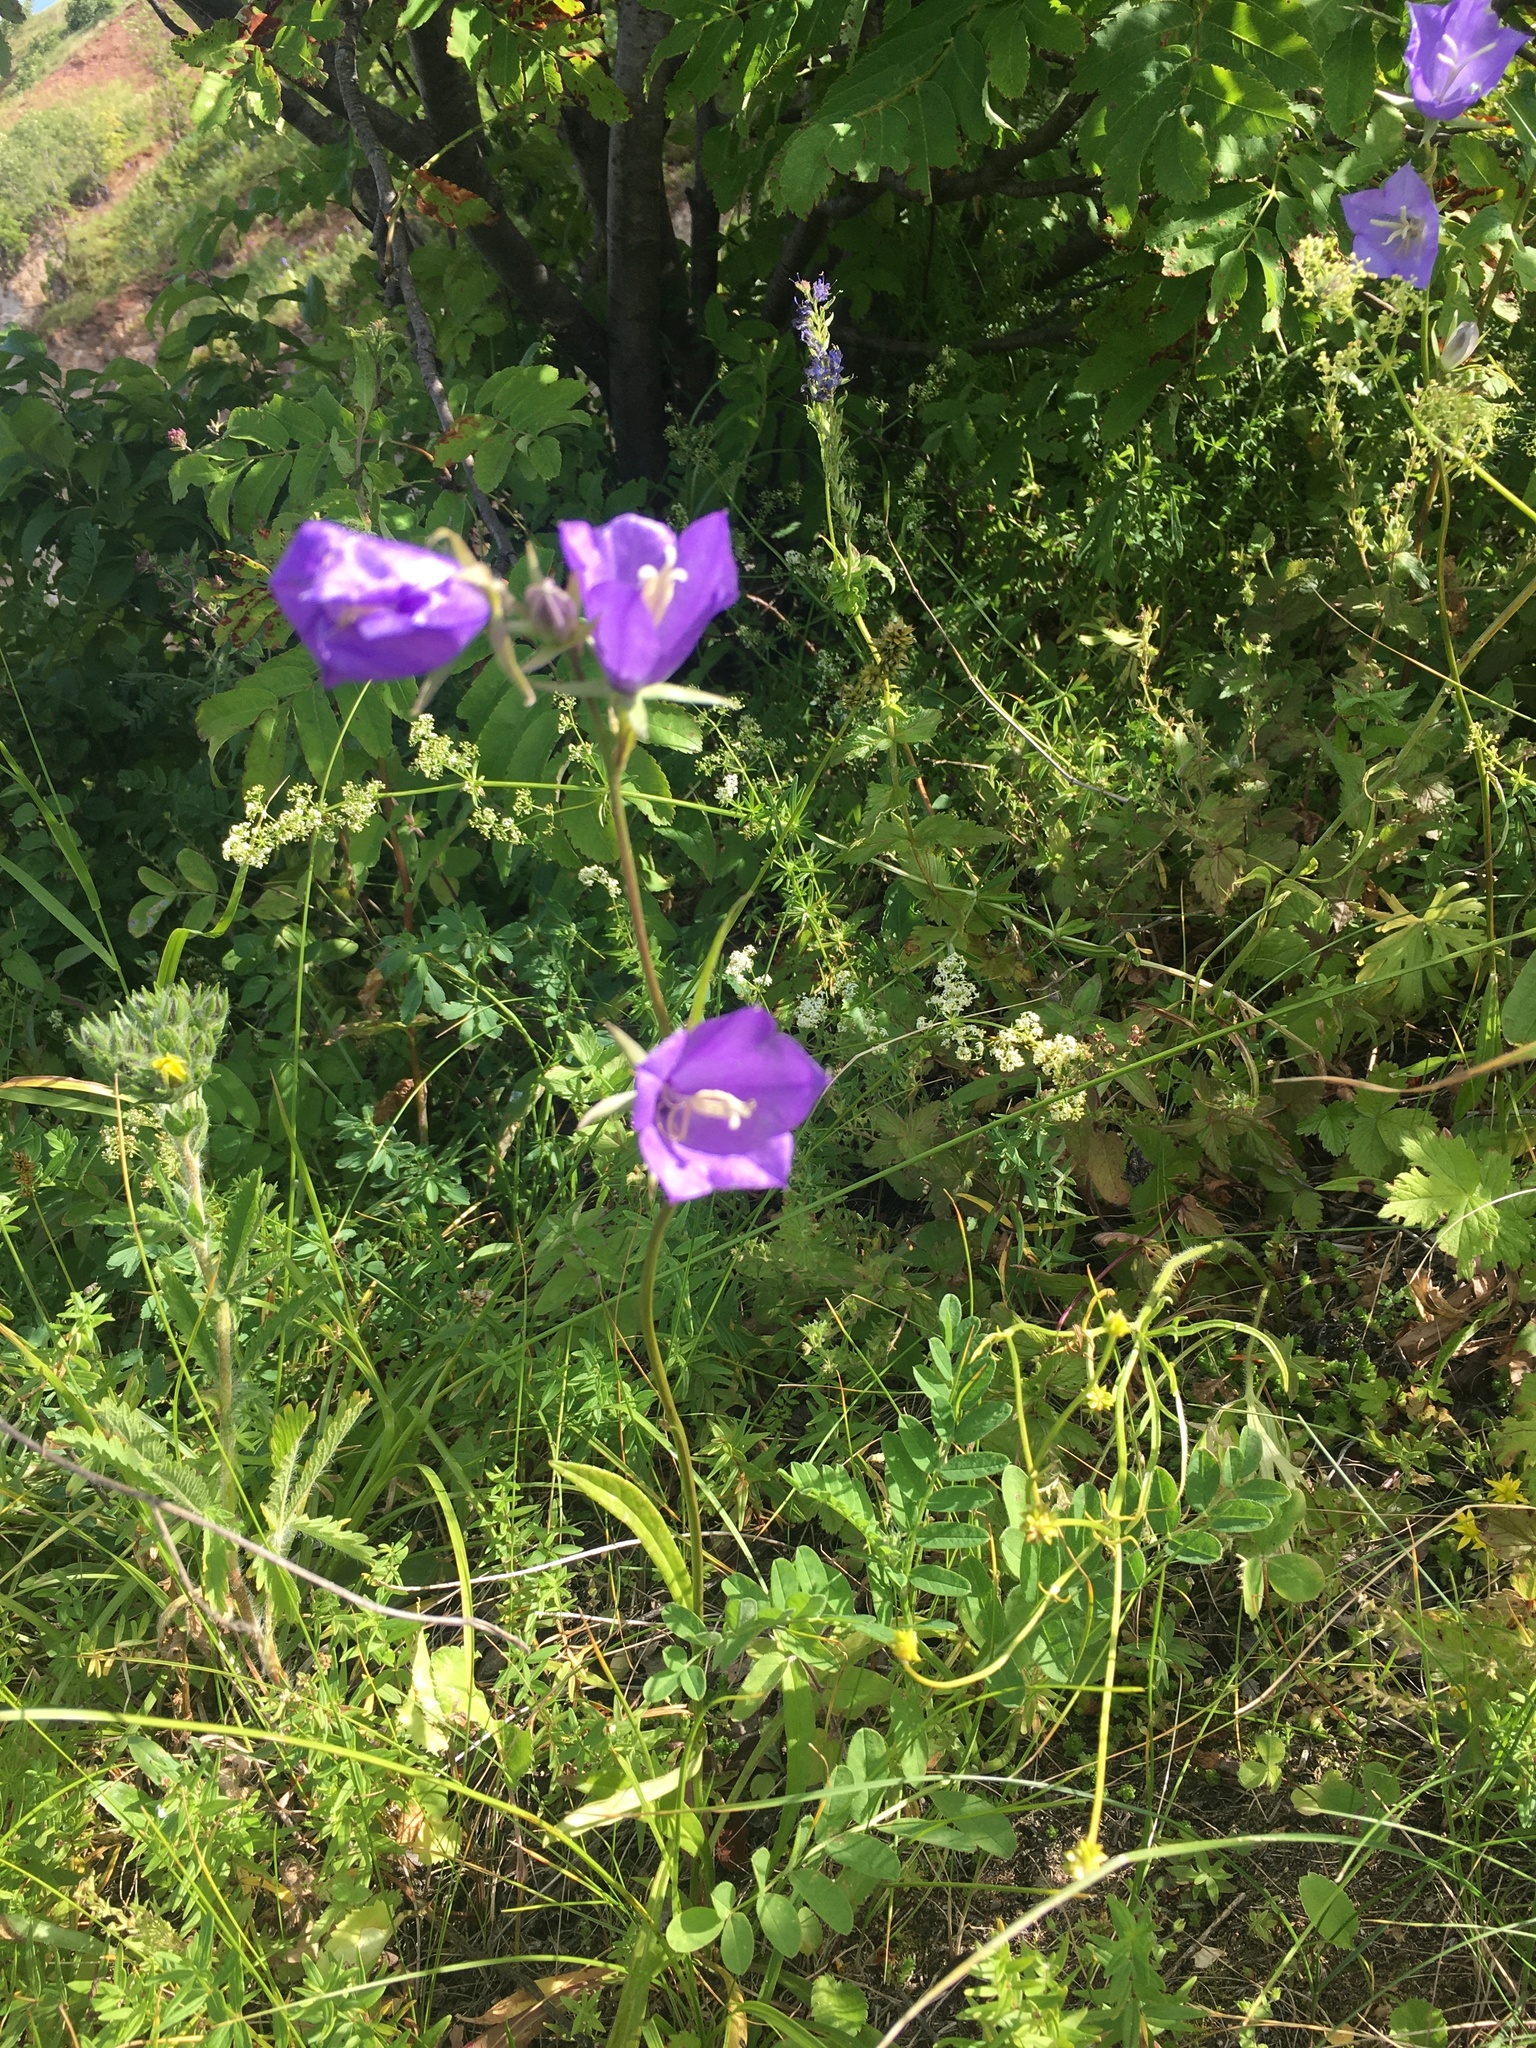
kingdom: Plantae
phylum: Tracheophyta
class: Magnoliopsida
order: Asterales
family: Campanulaceae
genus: Campanula
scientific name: Campanula persicifolia
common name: Peach-leaved bellflower
